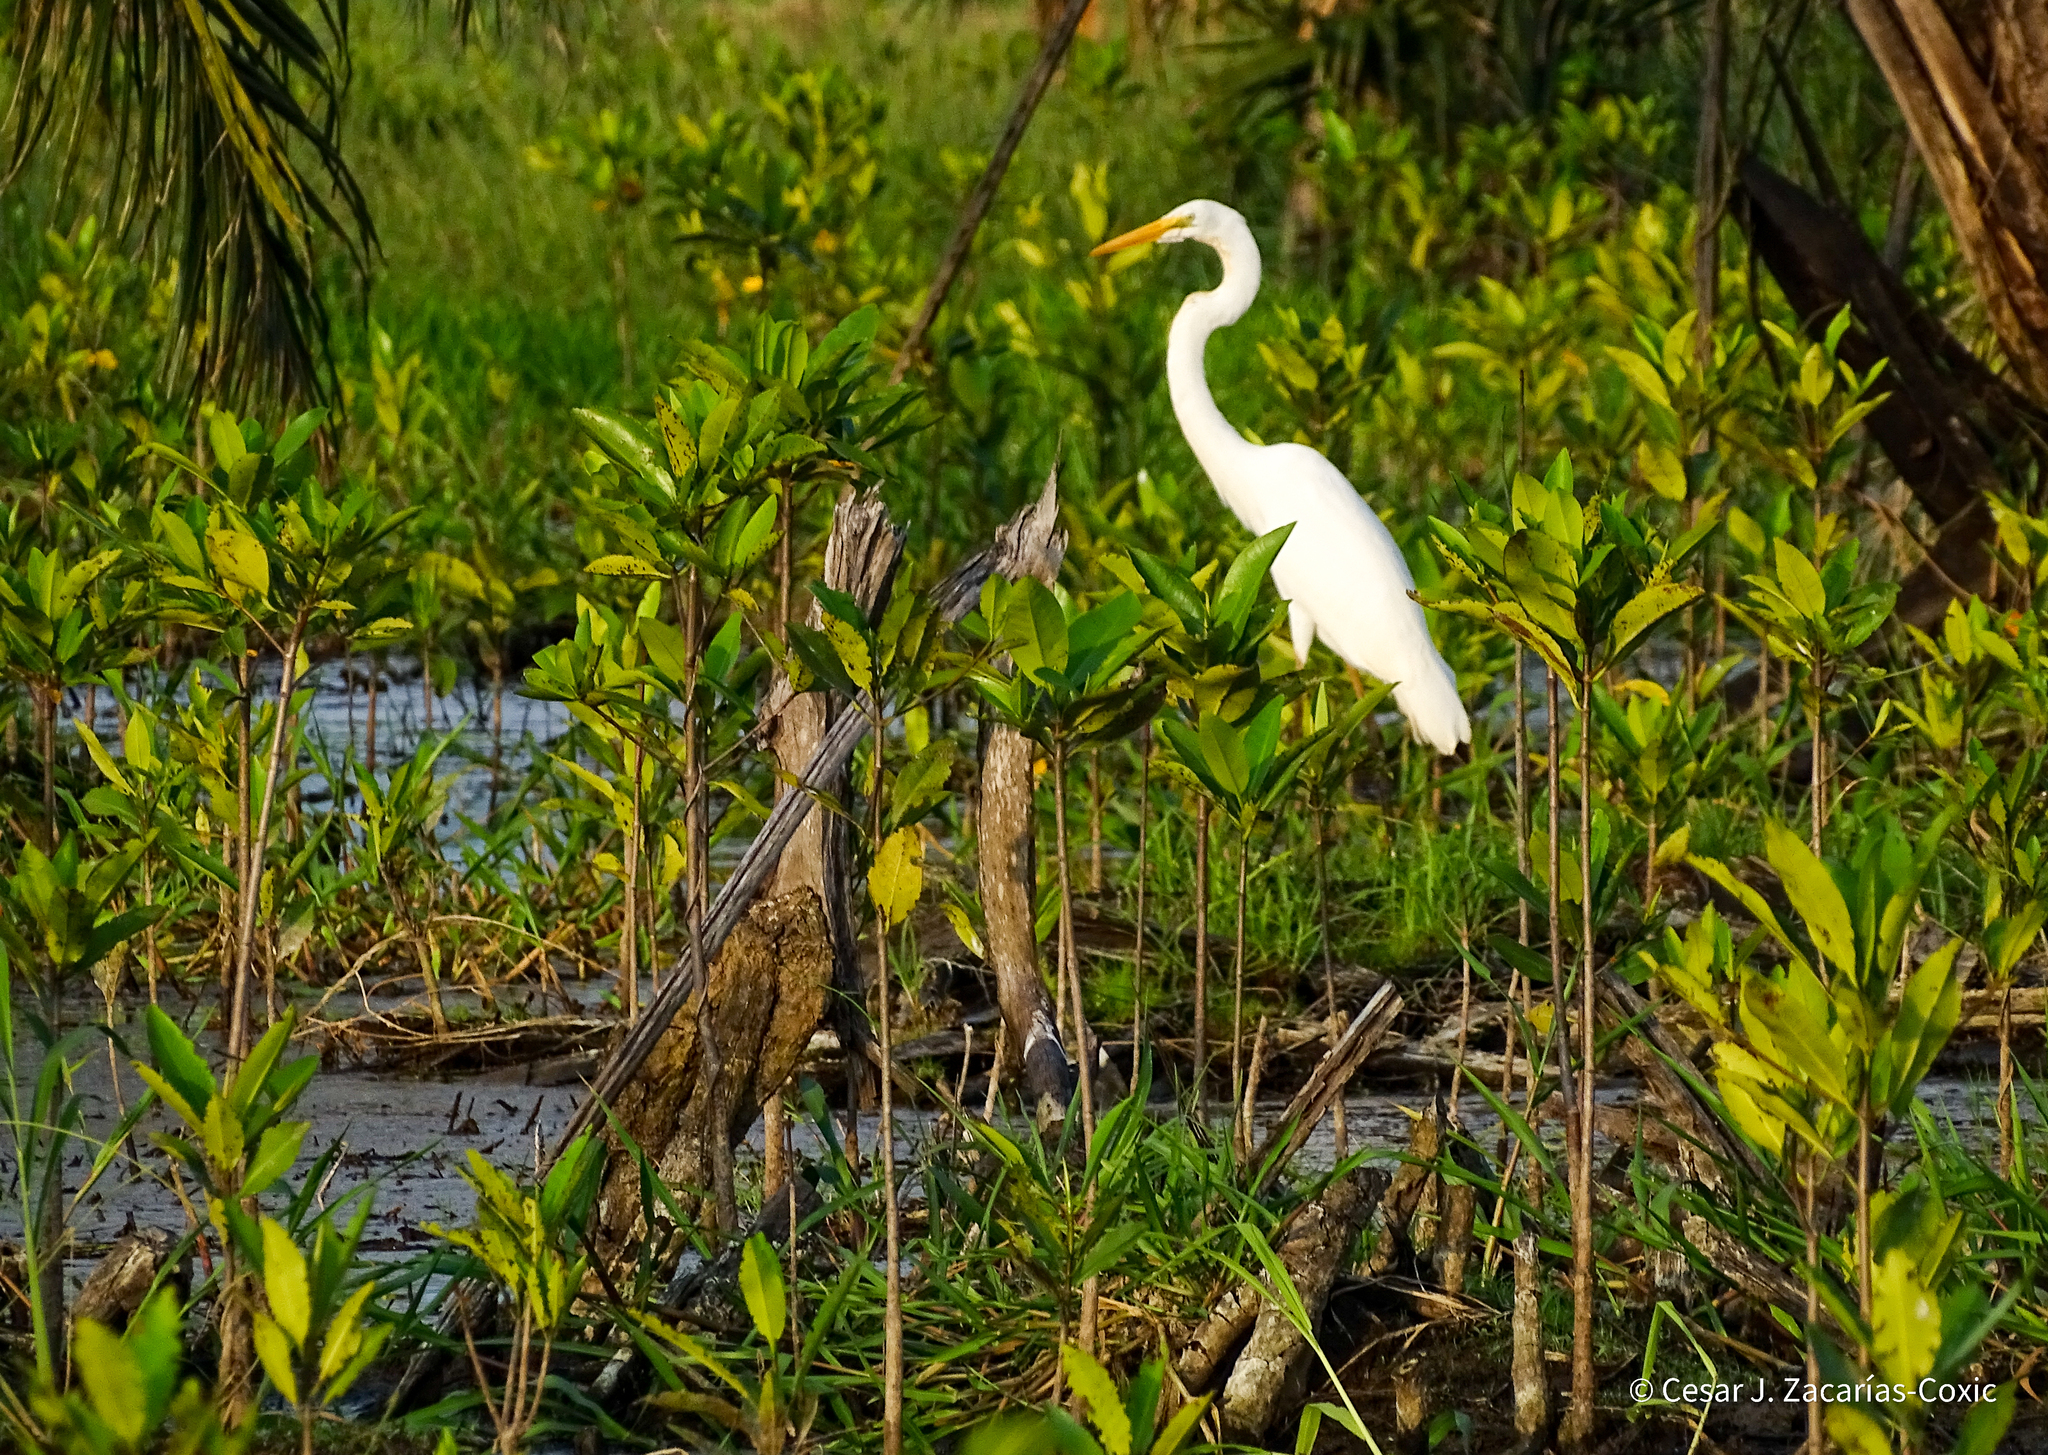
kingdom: Animalia
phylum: Chordata
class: Aves
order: Pelecaniformes
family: Ardeidae
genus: Ardea
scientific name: Ardea alba
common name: Great egret
